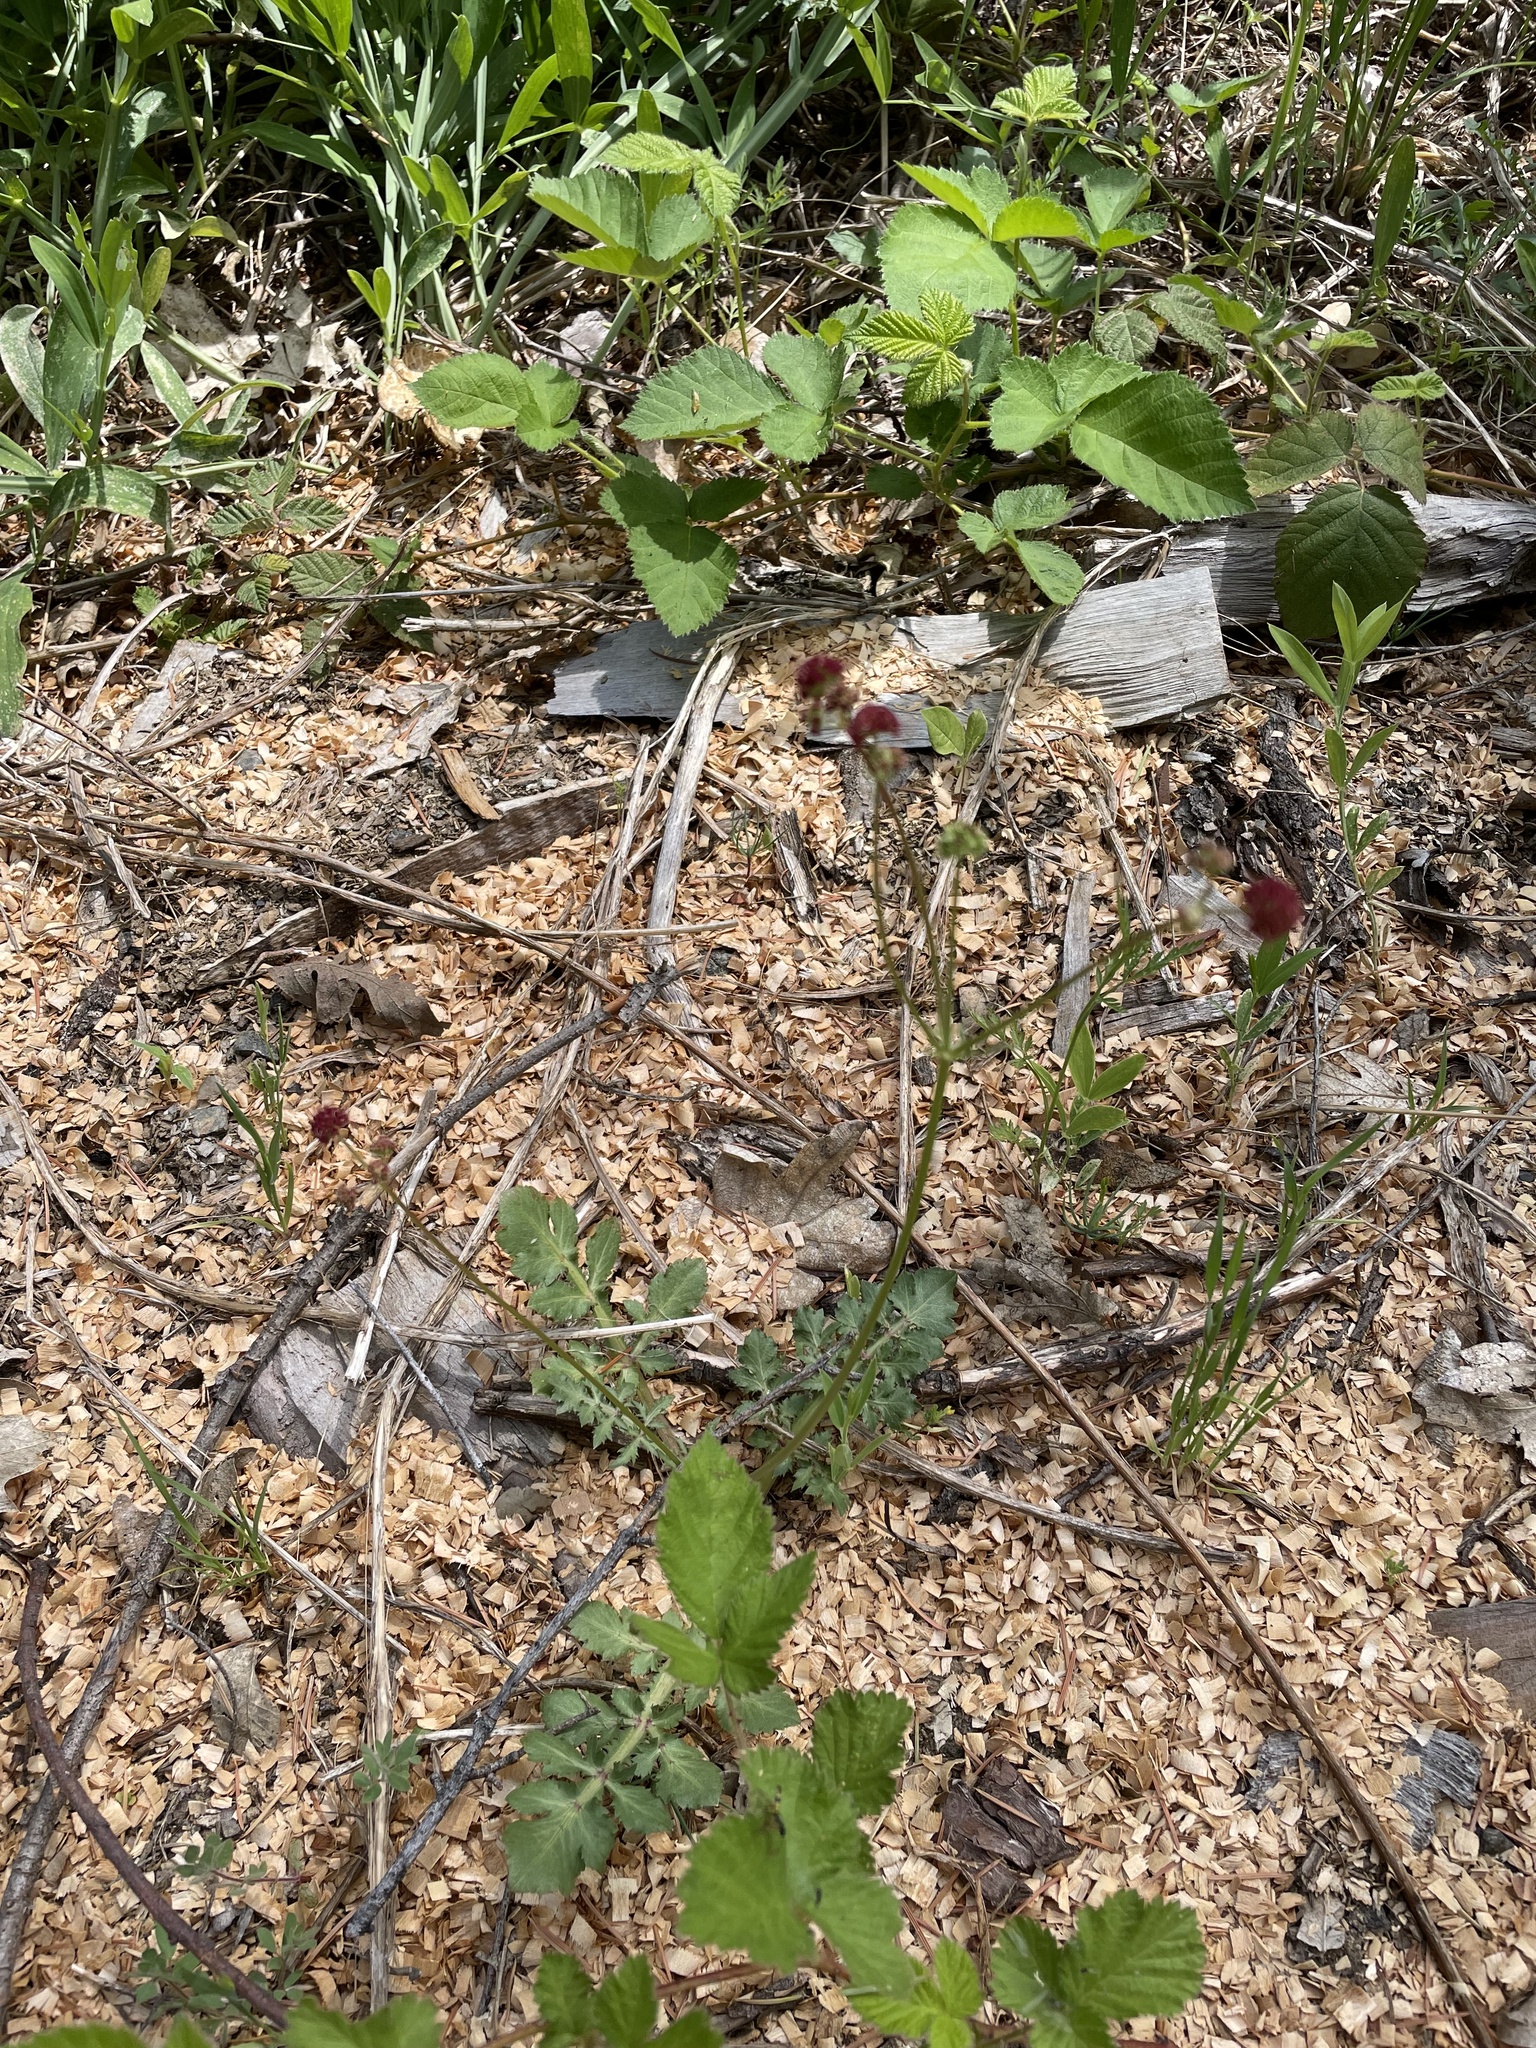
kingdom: Plantae
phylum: Tracheophyta
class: Magnoliopsida
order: Apiales
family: Apiaceae
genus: Sanicula
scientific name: Sanicula bipinnatifida
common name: Shoe-buttons
